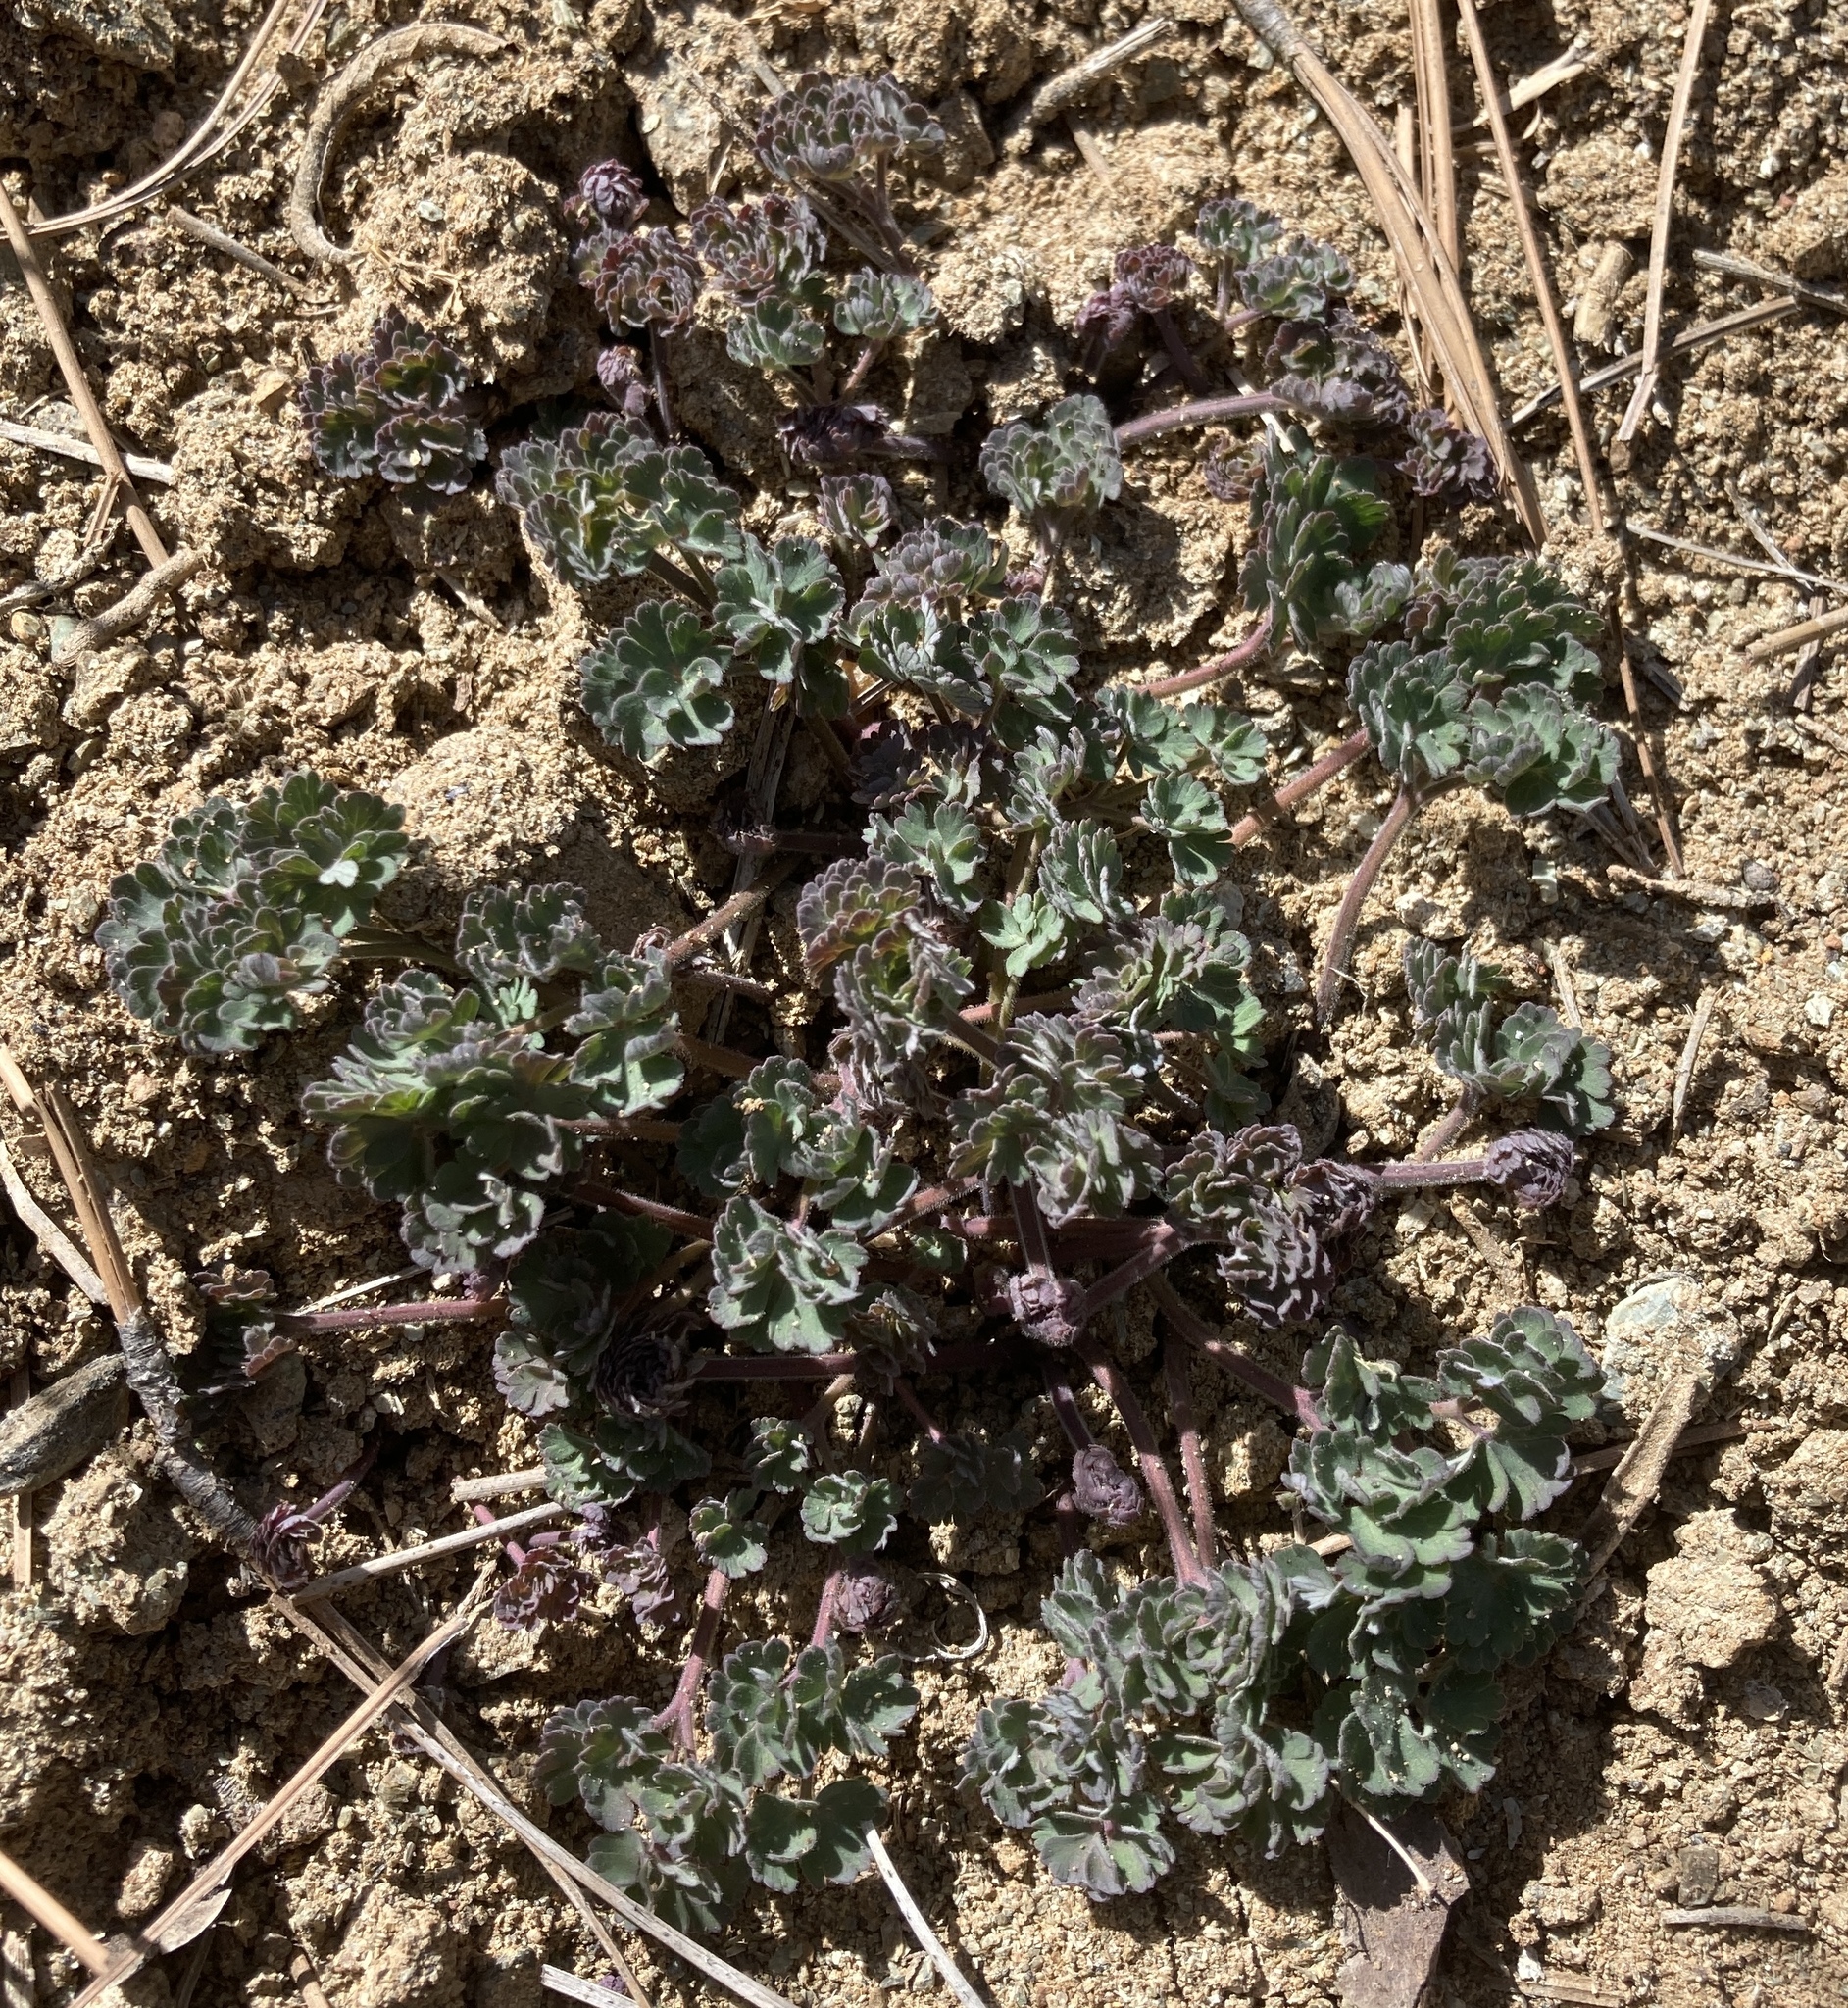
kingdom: Plantae
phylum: Tracheophyta
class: Magnoliopsida
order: Ranunculales
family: Ranunculaceae
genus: Aquilegia
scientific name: Aquilegia eximia
